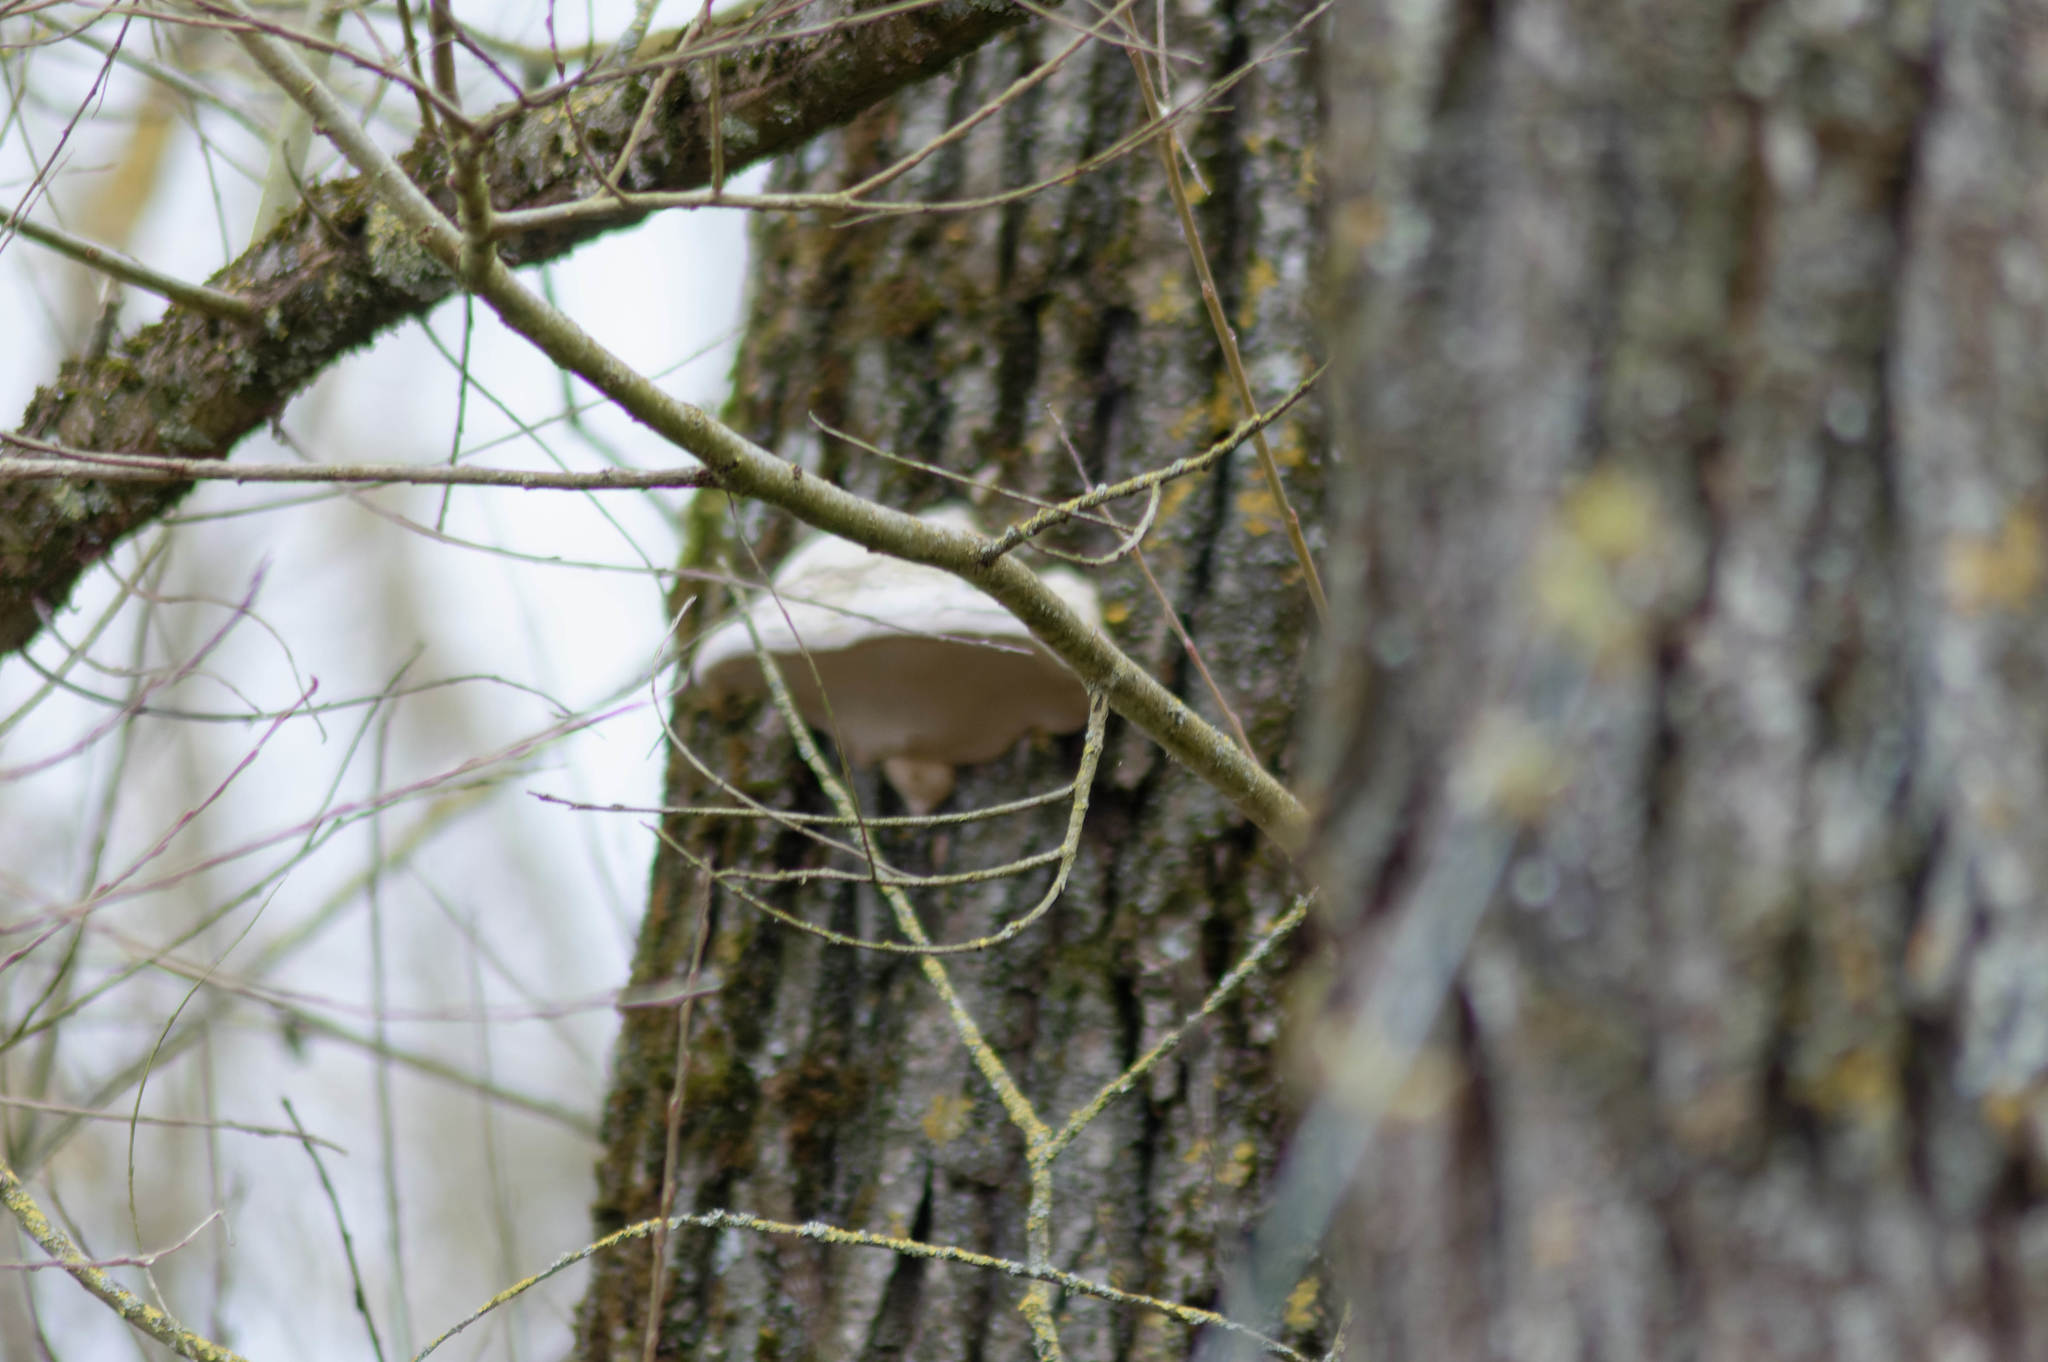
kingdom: Fungi
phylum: Basidiomycota
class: Agaricomycetes
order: Polyporales
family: Polyporaceae
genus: Fomes
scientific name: Fomes fomentarius
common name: Hoof fungus
